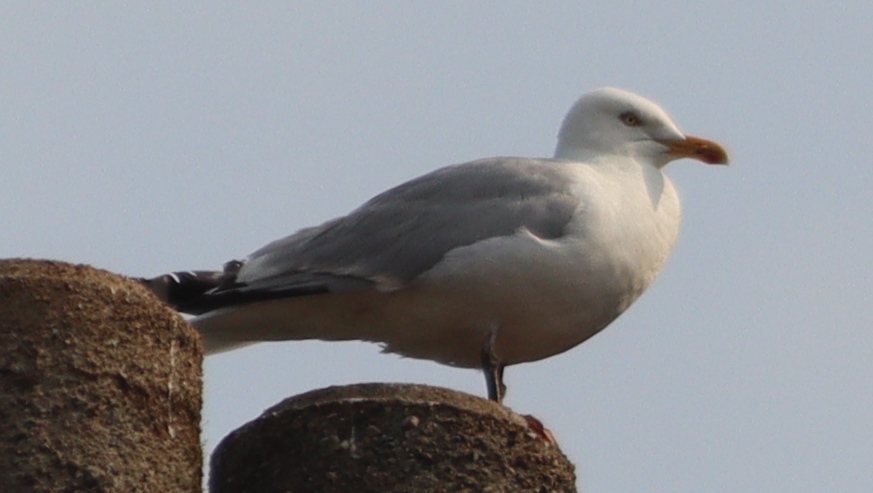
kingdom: Animalia
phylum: Chordata
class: Aves
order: Charadriiformes
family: Laridae
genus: Larus
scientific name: Larus argentatus
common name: Herring gull
